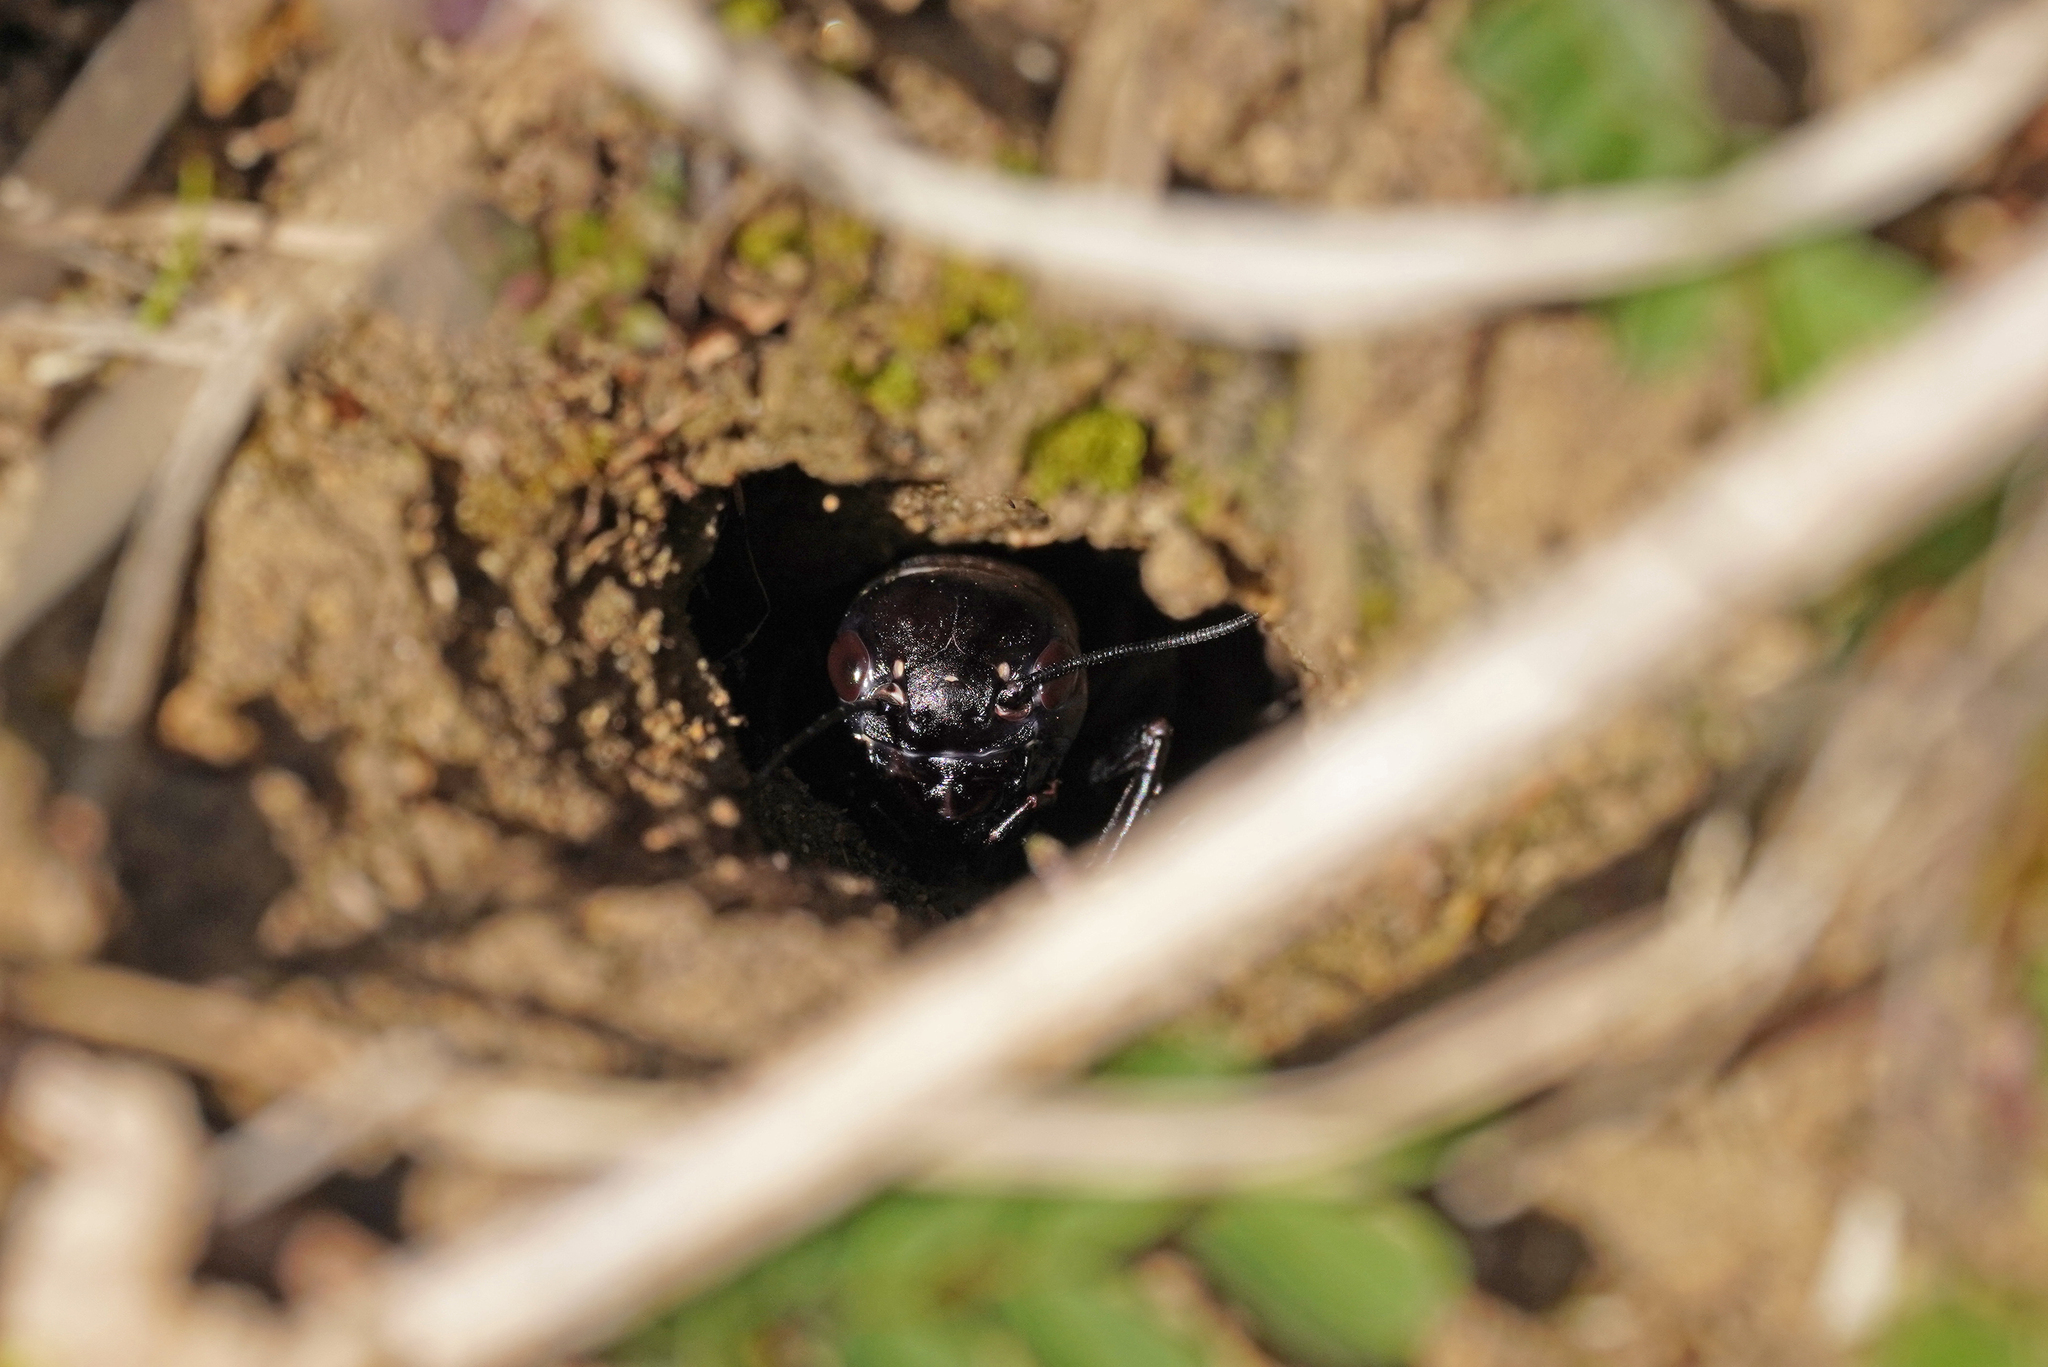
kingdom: Animalia
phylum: Arthropoda
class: Insecta
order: Orthoptera
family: Gryllidae
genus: Gryllus
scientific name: Gryllus campestris
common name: Field cricket
